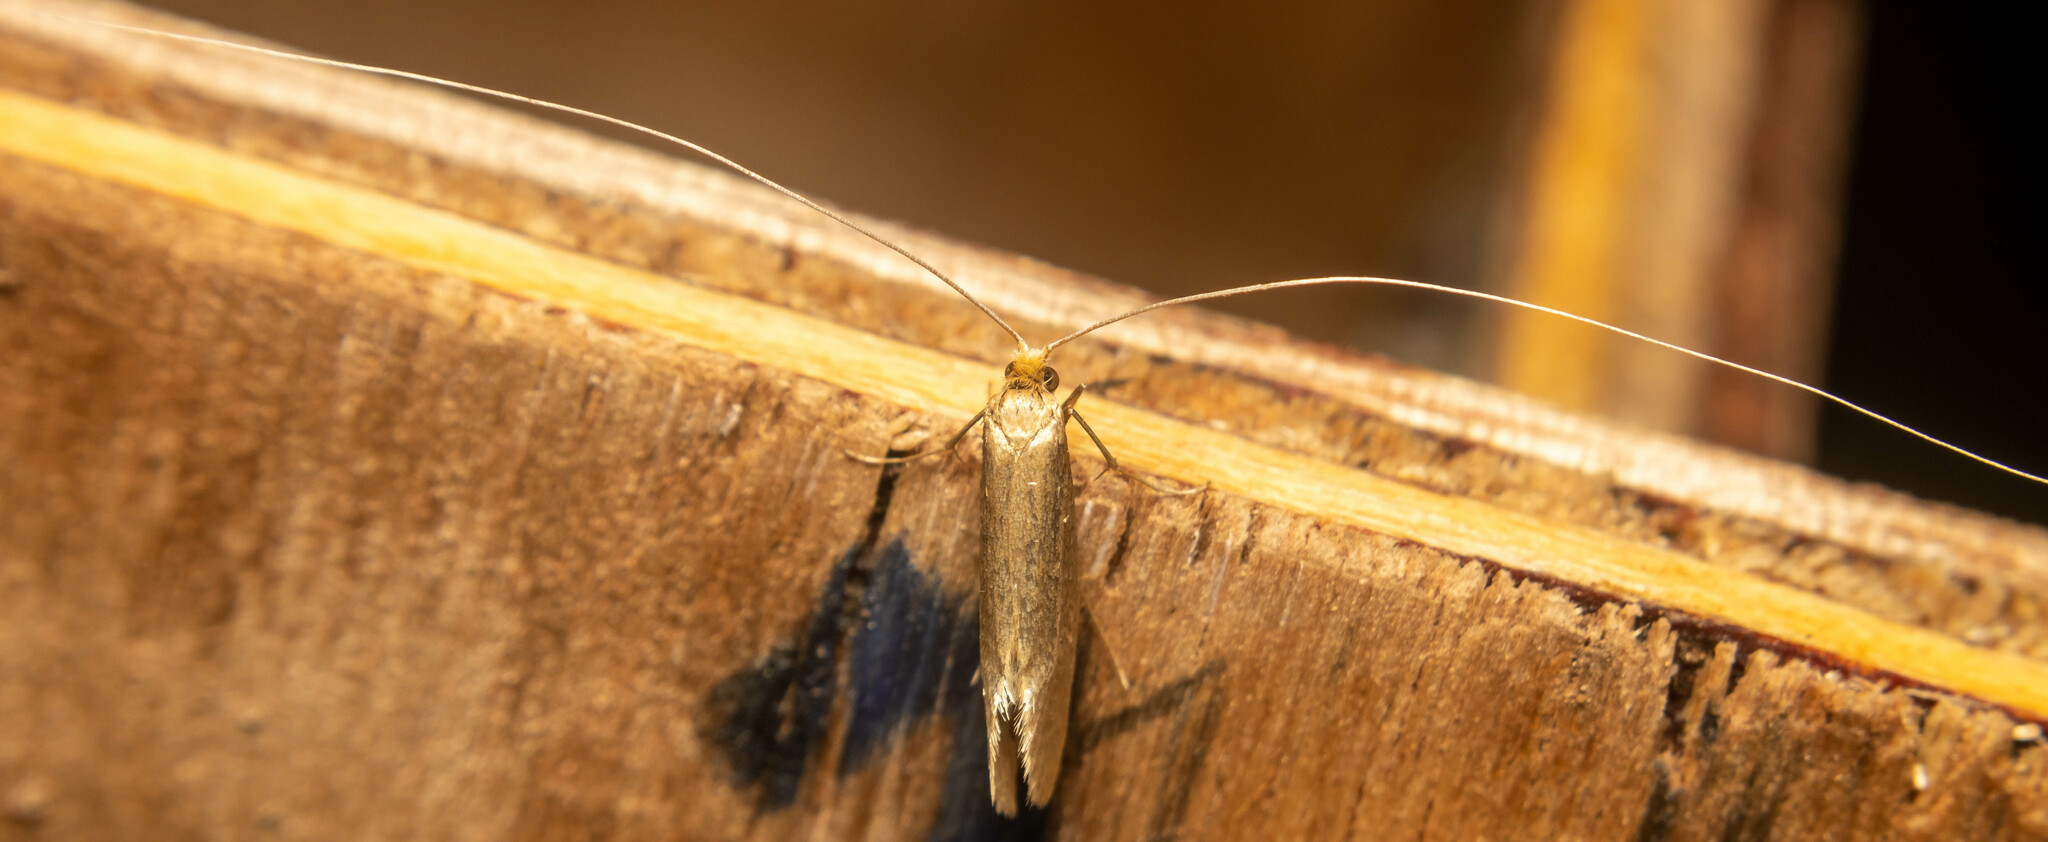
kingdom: Animalia
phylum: Arthropoda
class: Insecta
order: Lepidoptera
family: Adelidae
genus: Nematopogon
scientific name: Nematopogon swammerdamella
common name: Large long-horn
